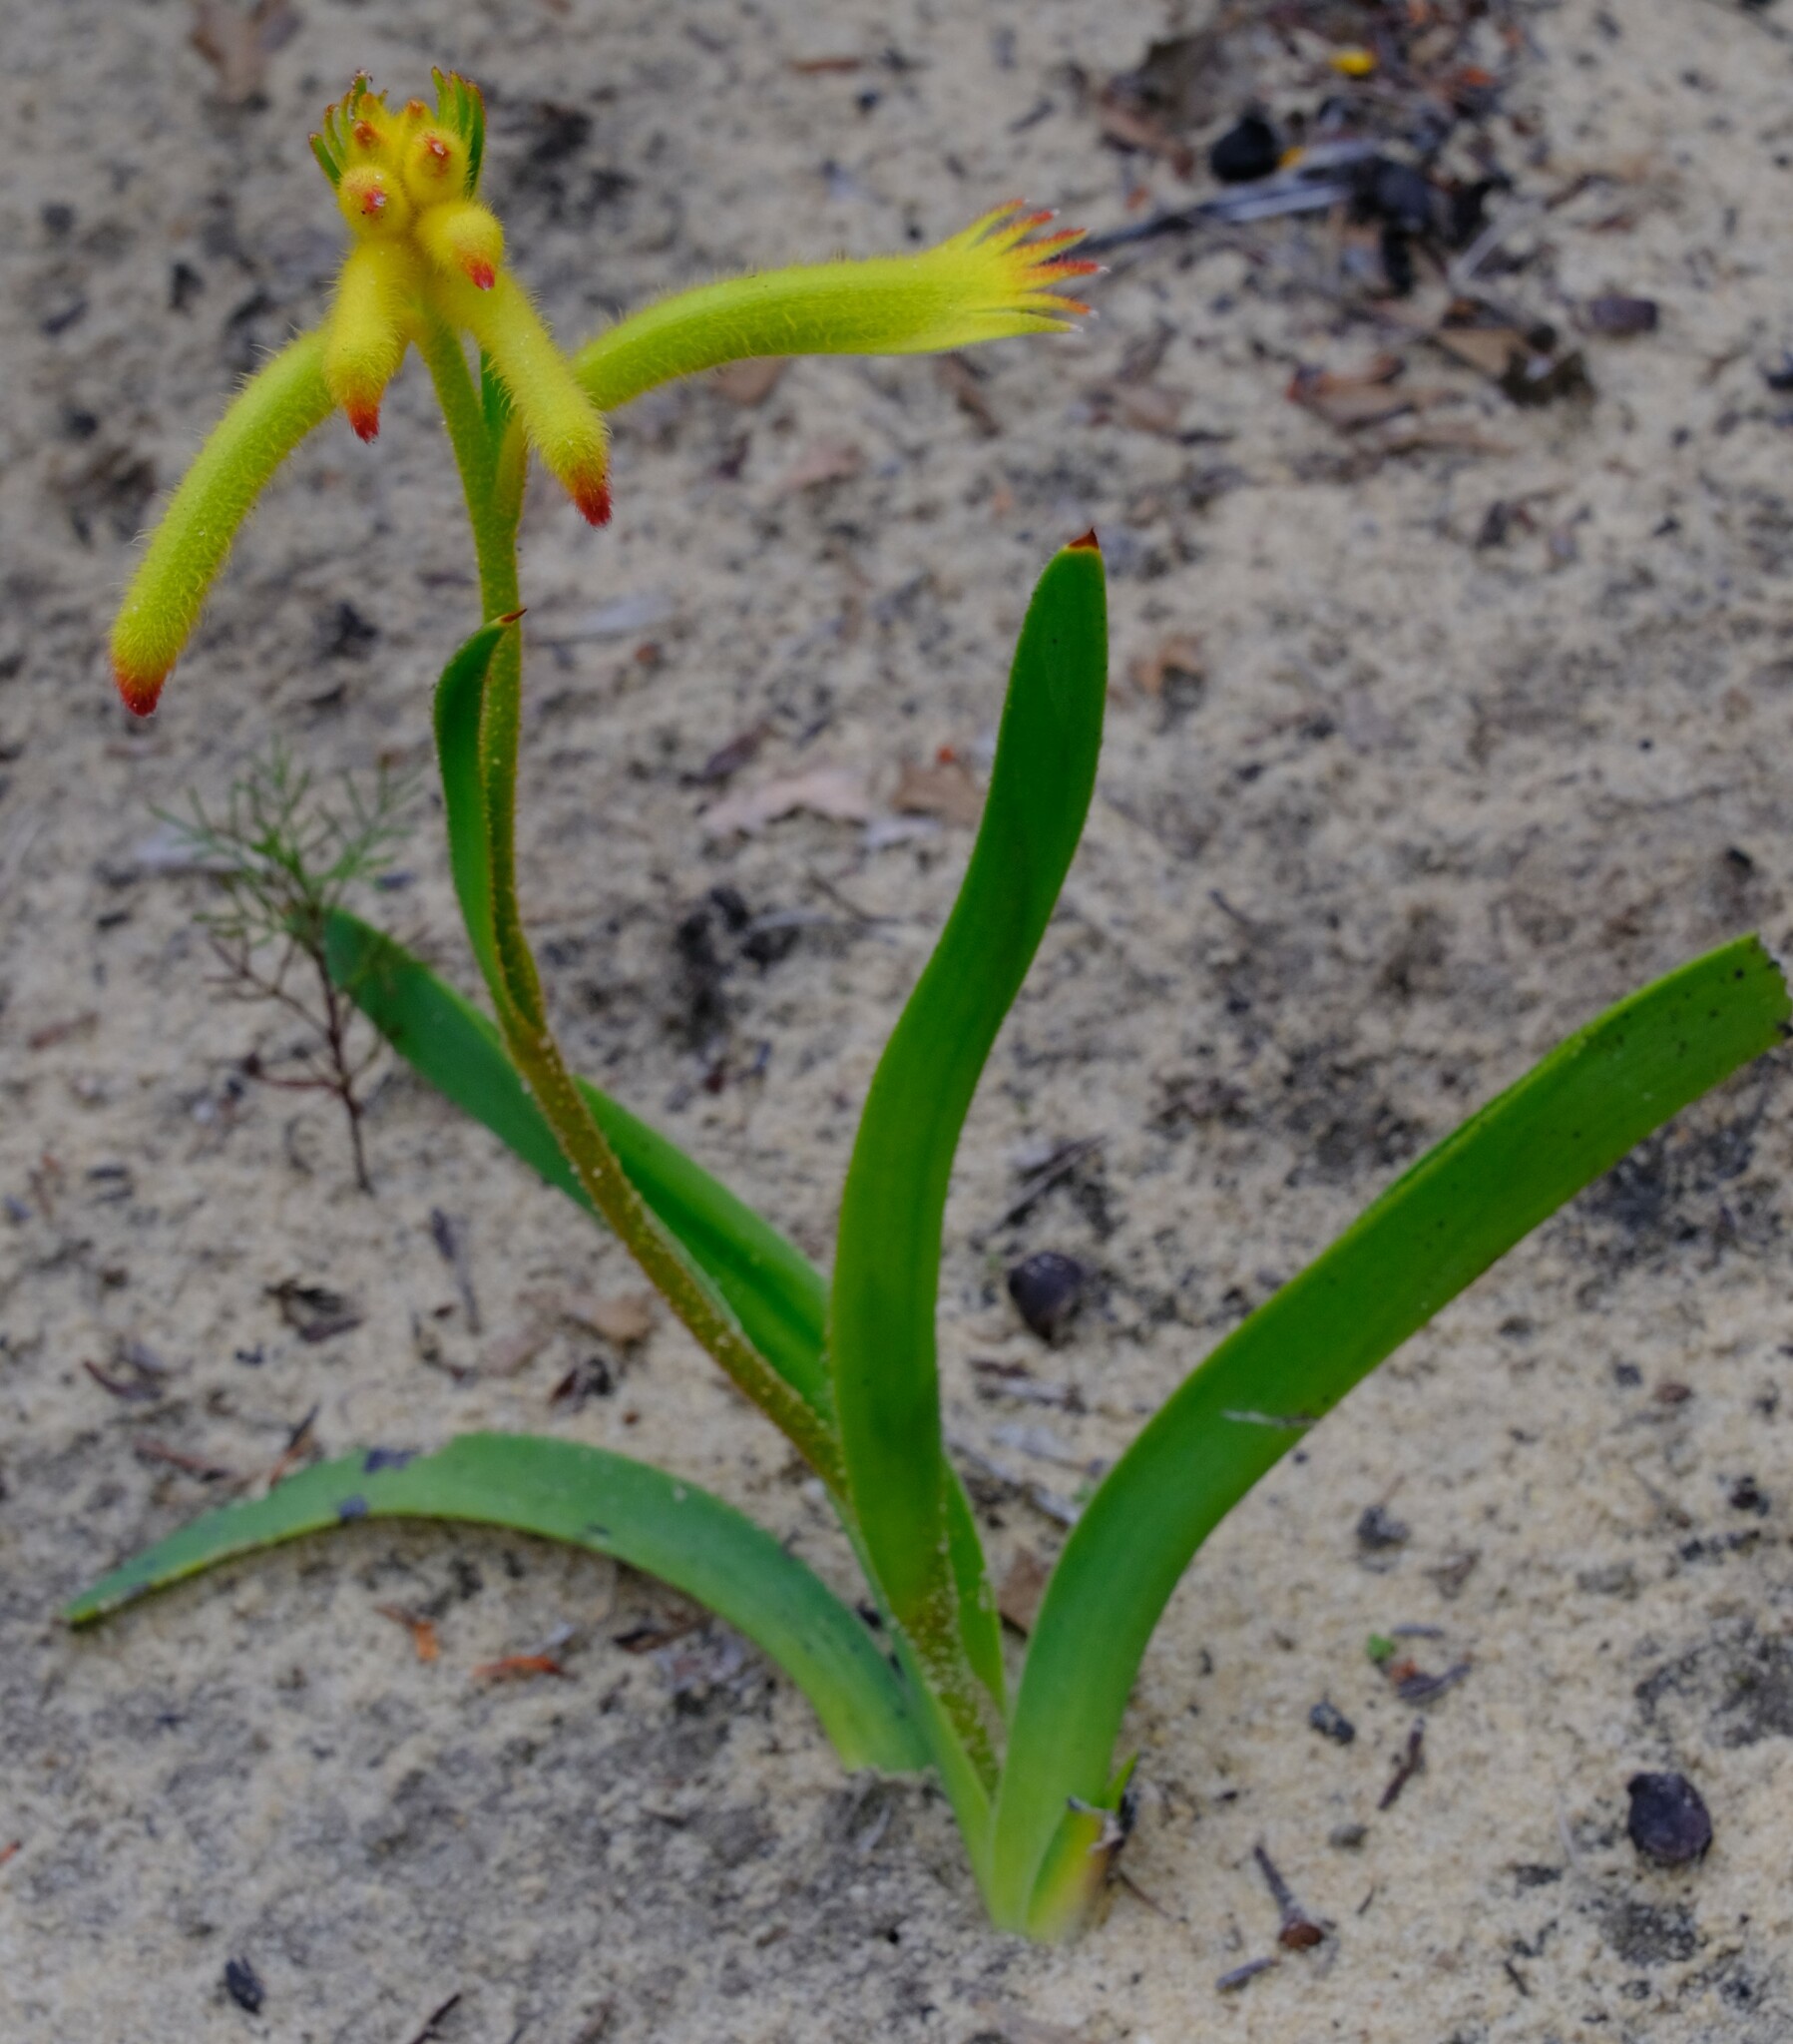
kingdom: Plantae
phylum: Tracheophyta
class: Liliopsida
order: Commelinales
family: Haemodoraceae
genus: Anigozanthos
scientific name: Anigozanthos humilis
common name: Cat's-paw
